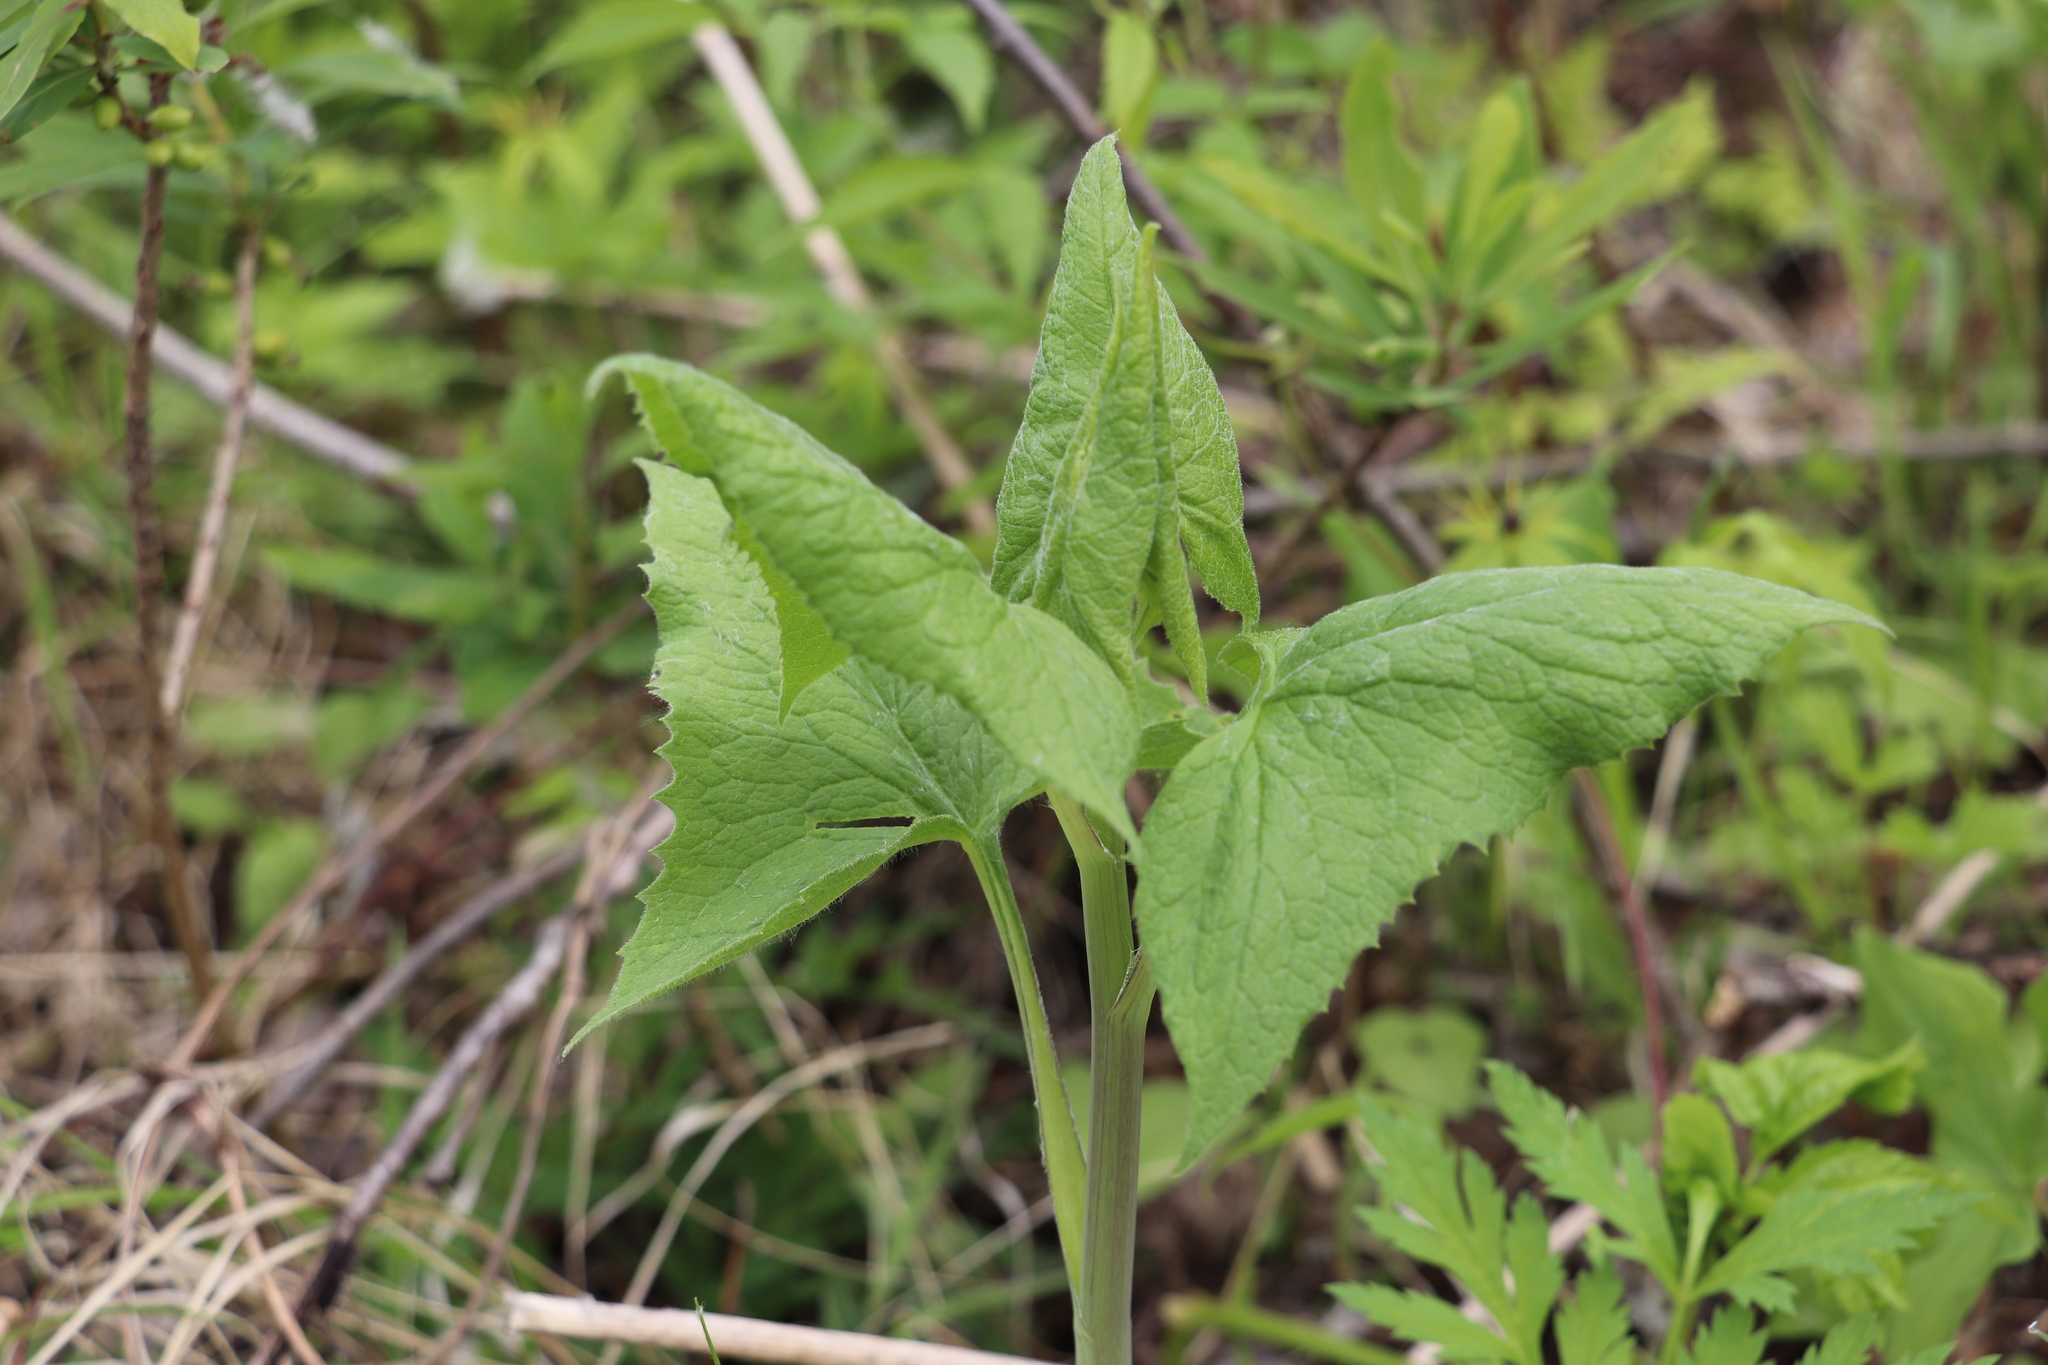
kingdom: Plantae
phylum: Tracheophyta
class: Magnoliopsida
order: Asterales
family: Asteraceae
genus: Parasenecio
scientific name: Parasenecio hastatus
